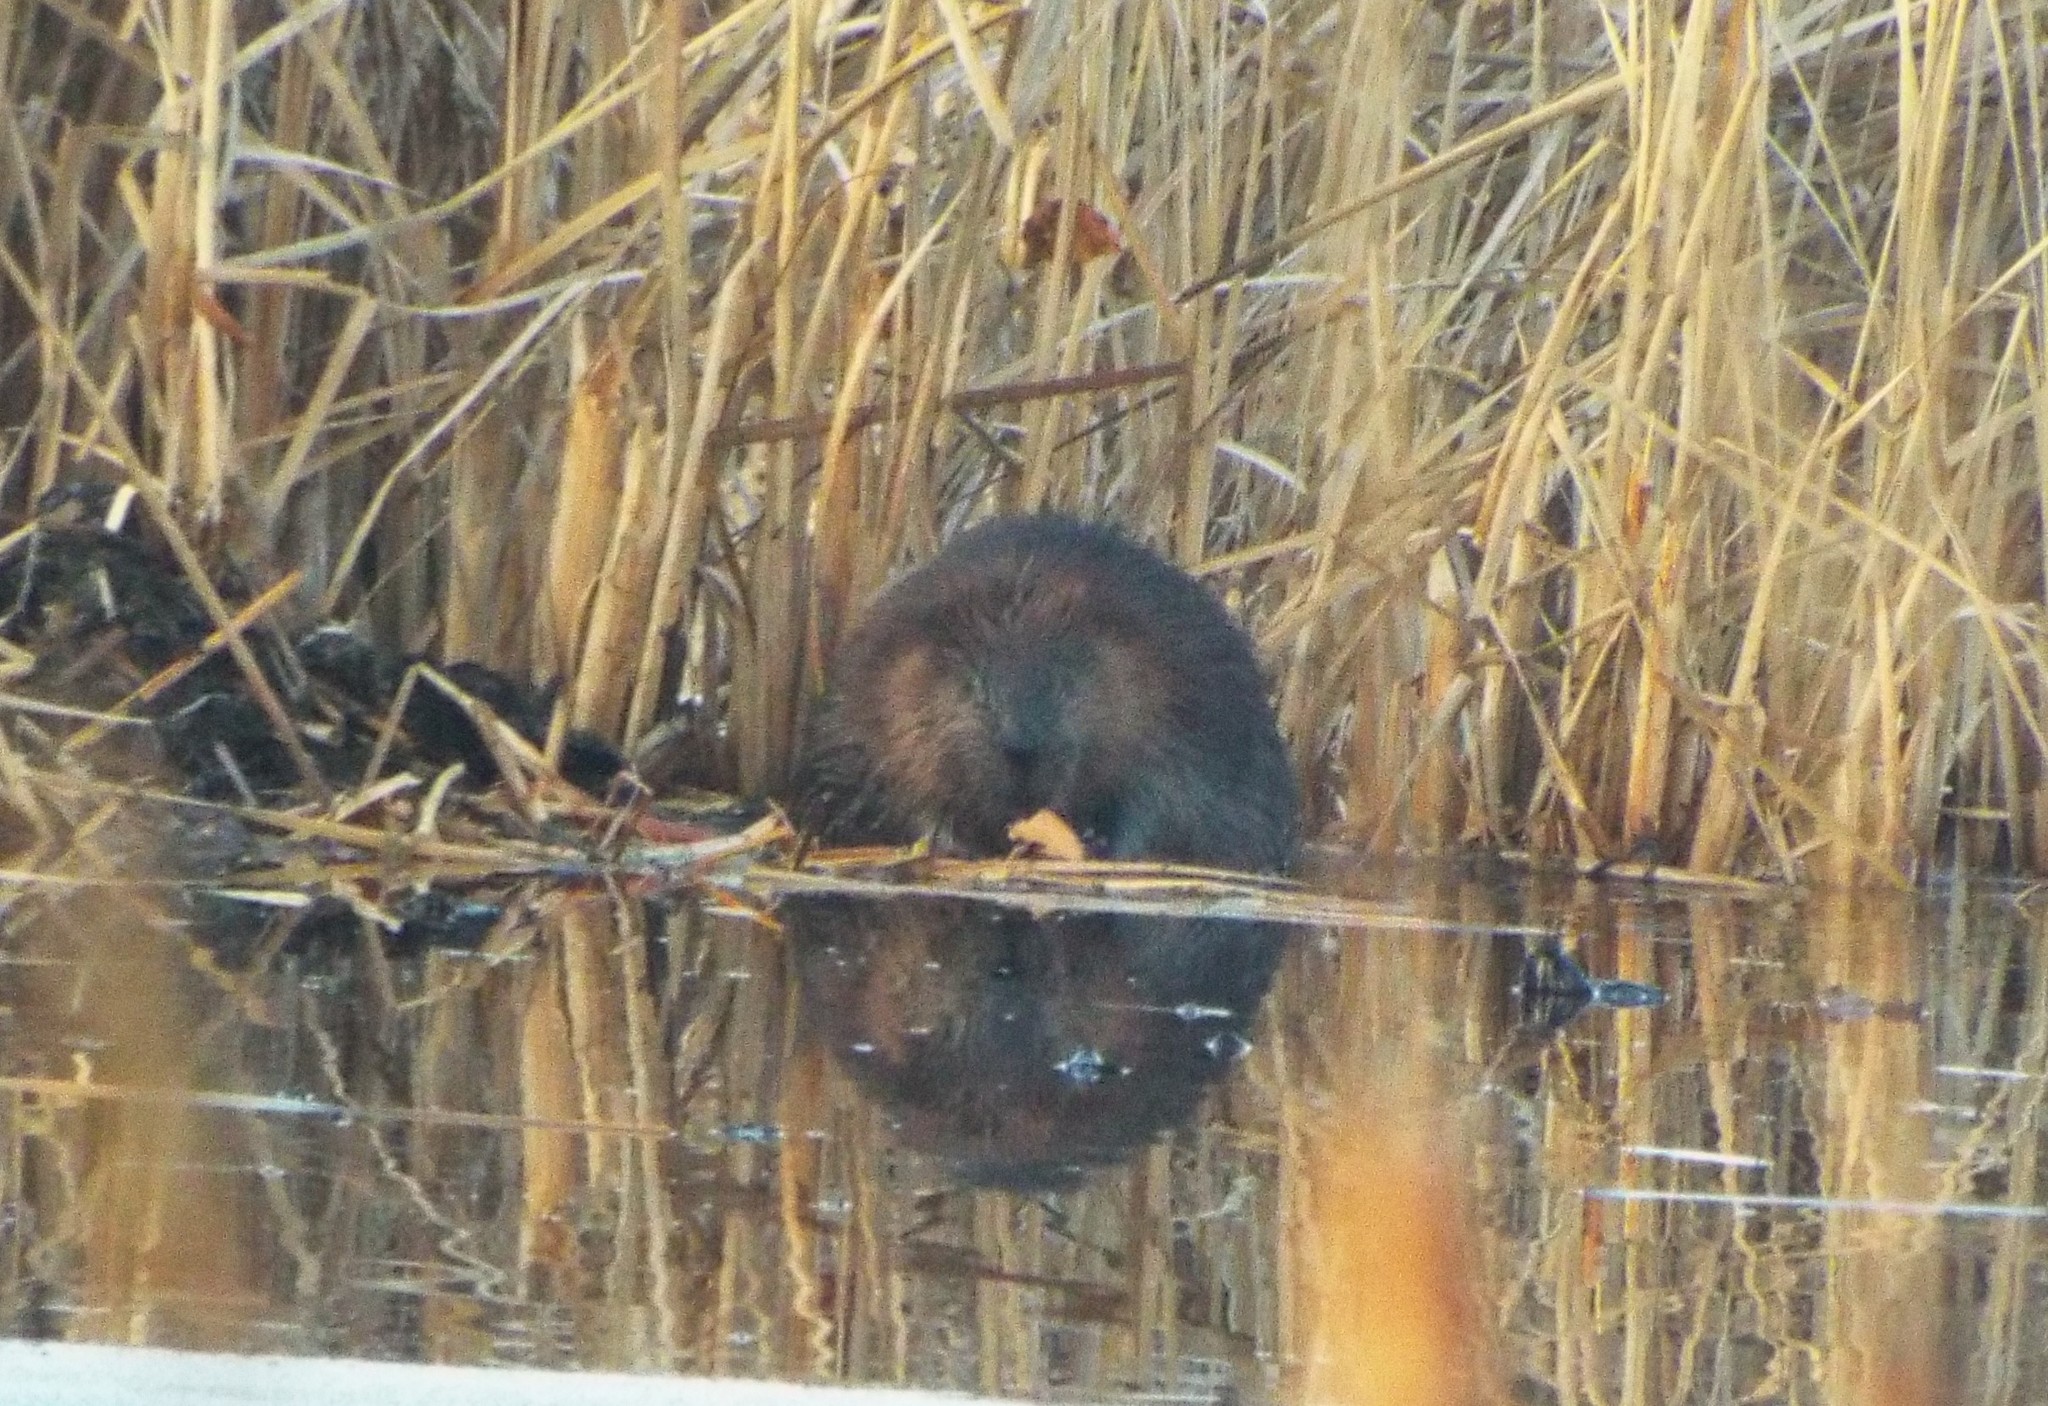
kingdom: Animalia
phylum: Chordata
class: Mammalia
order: Rodentia
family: Castoridae
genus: Castor
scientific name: Castor canadensis
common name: American beaver
